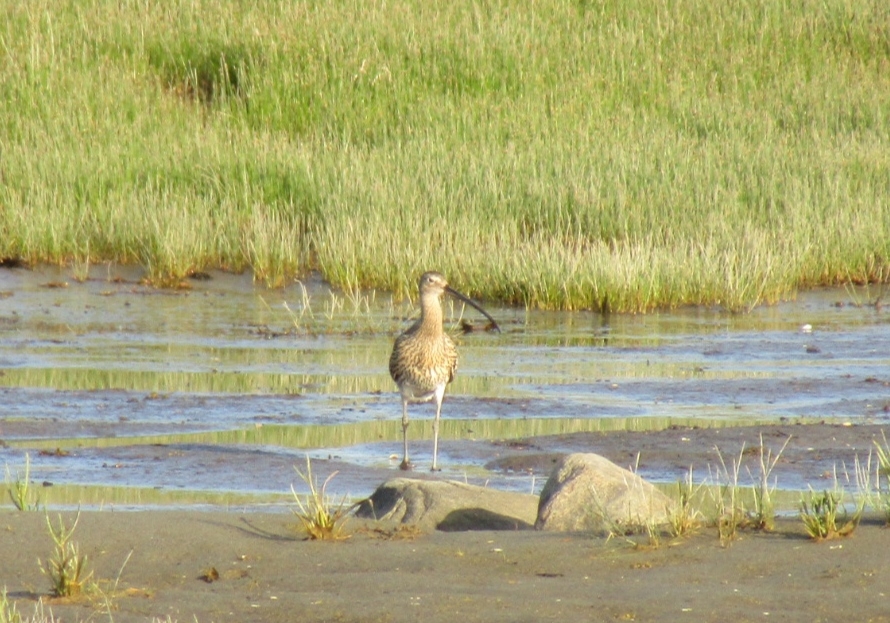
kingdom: Animalia
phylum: Chordata
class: Aves
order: Charadriiformes
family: Scolopacidae
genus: Numenius
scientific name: Numenius arquata
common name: Eurasian curlew
